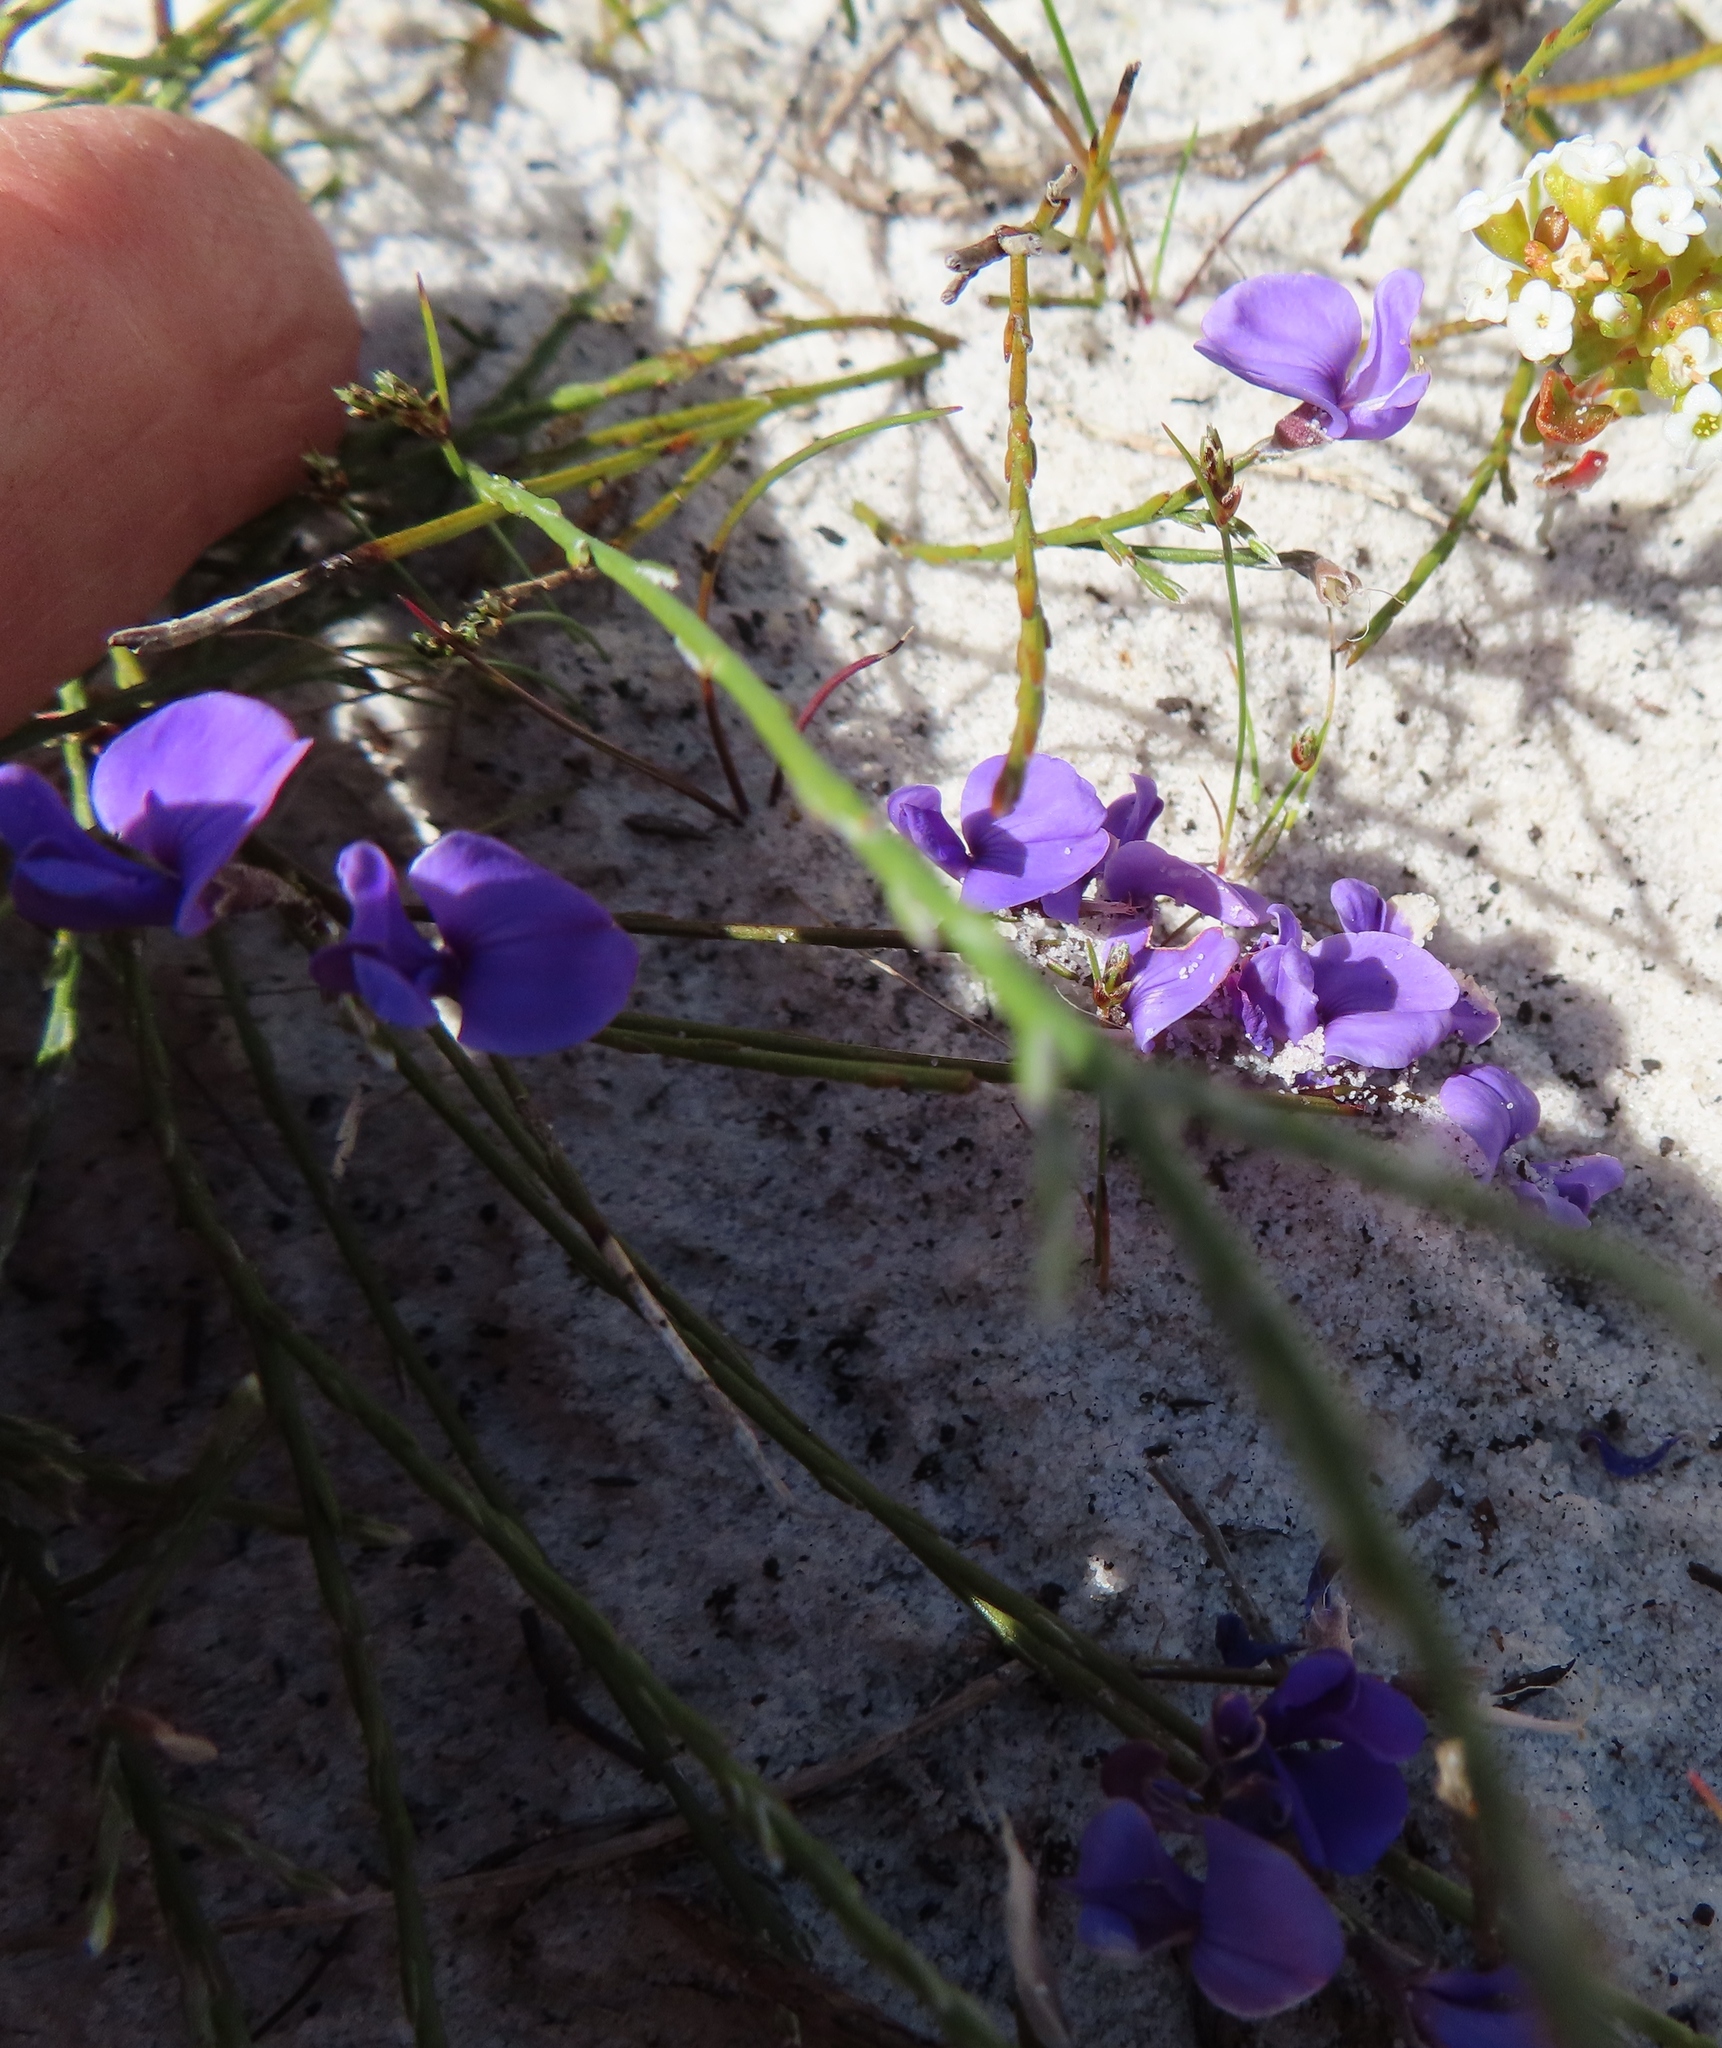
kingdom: Plantae
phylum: Tracheophyta
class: Magnoliopsida
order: Fabales
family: Fabaceae
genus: Amphithalea
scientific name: Amphithalea biovulata
